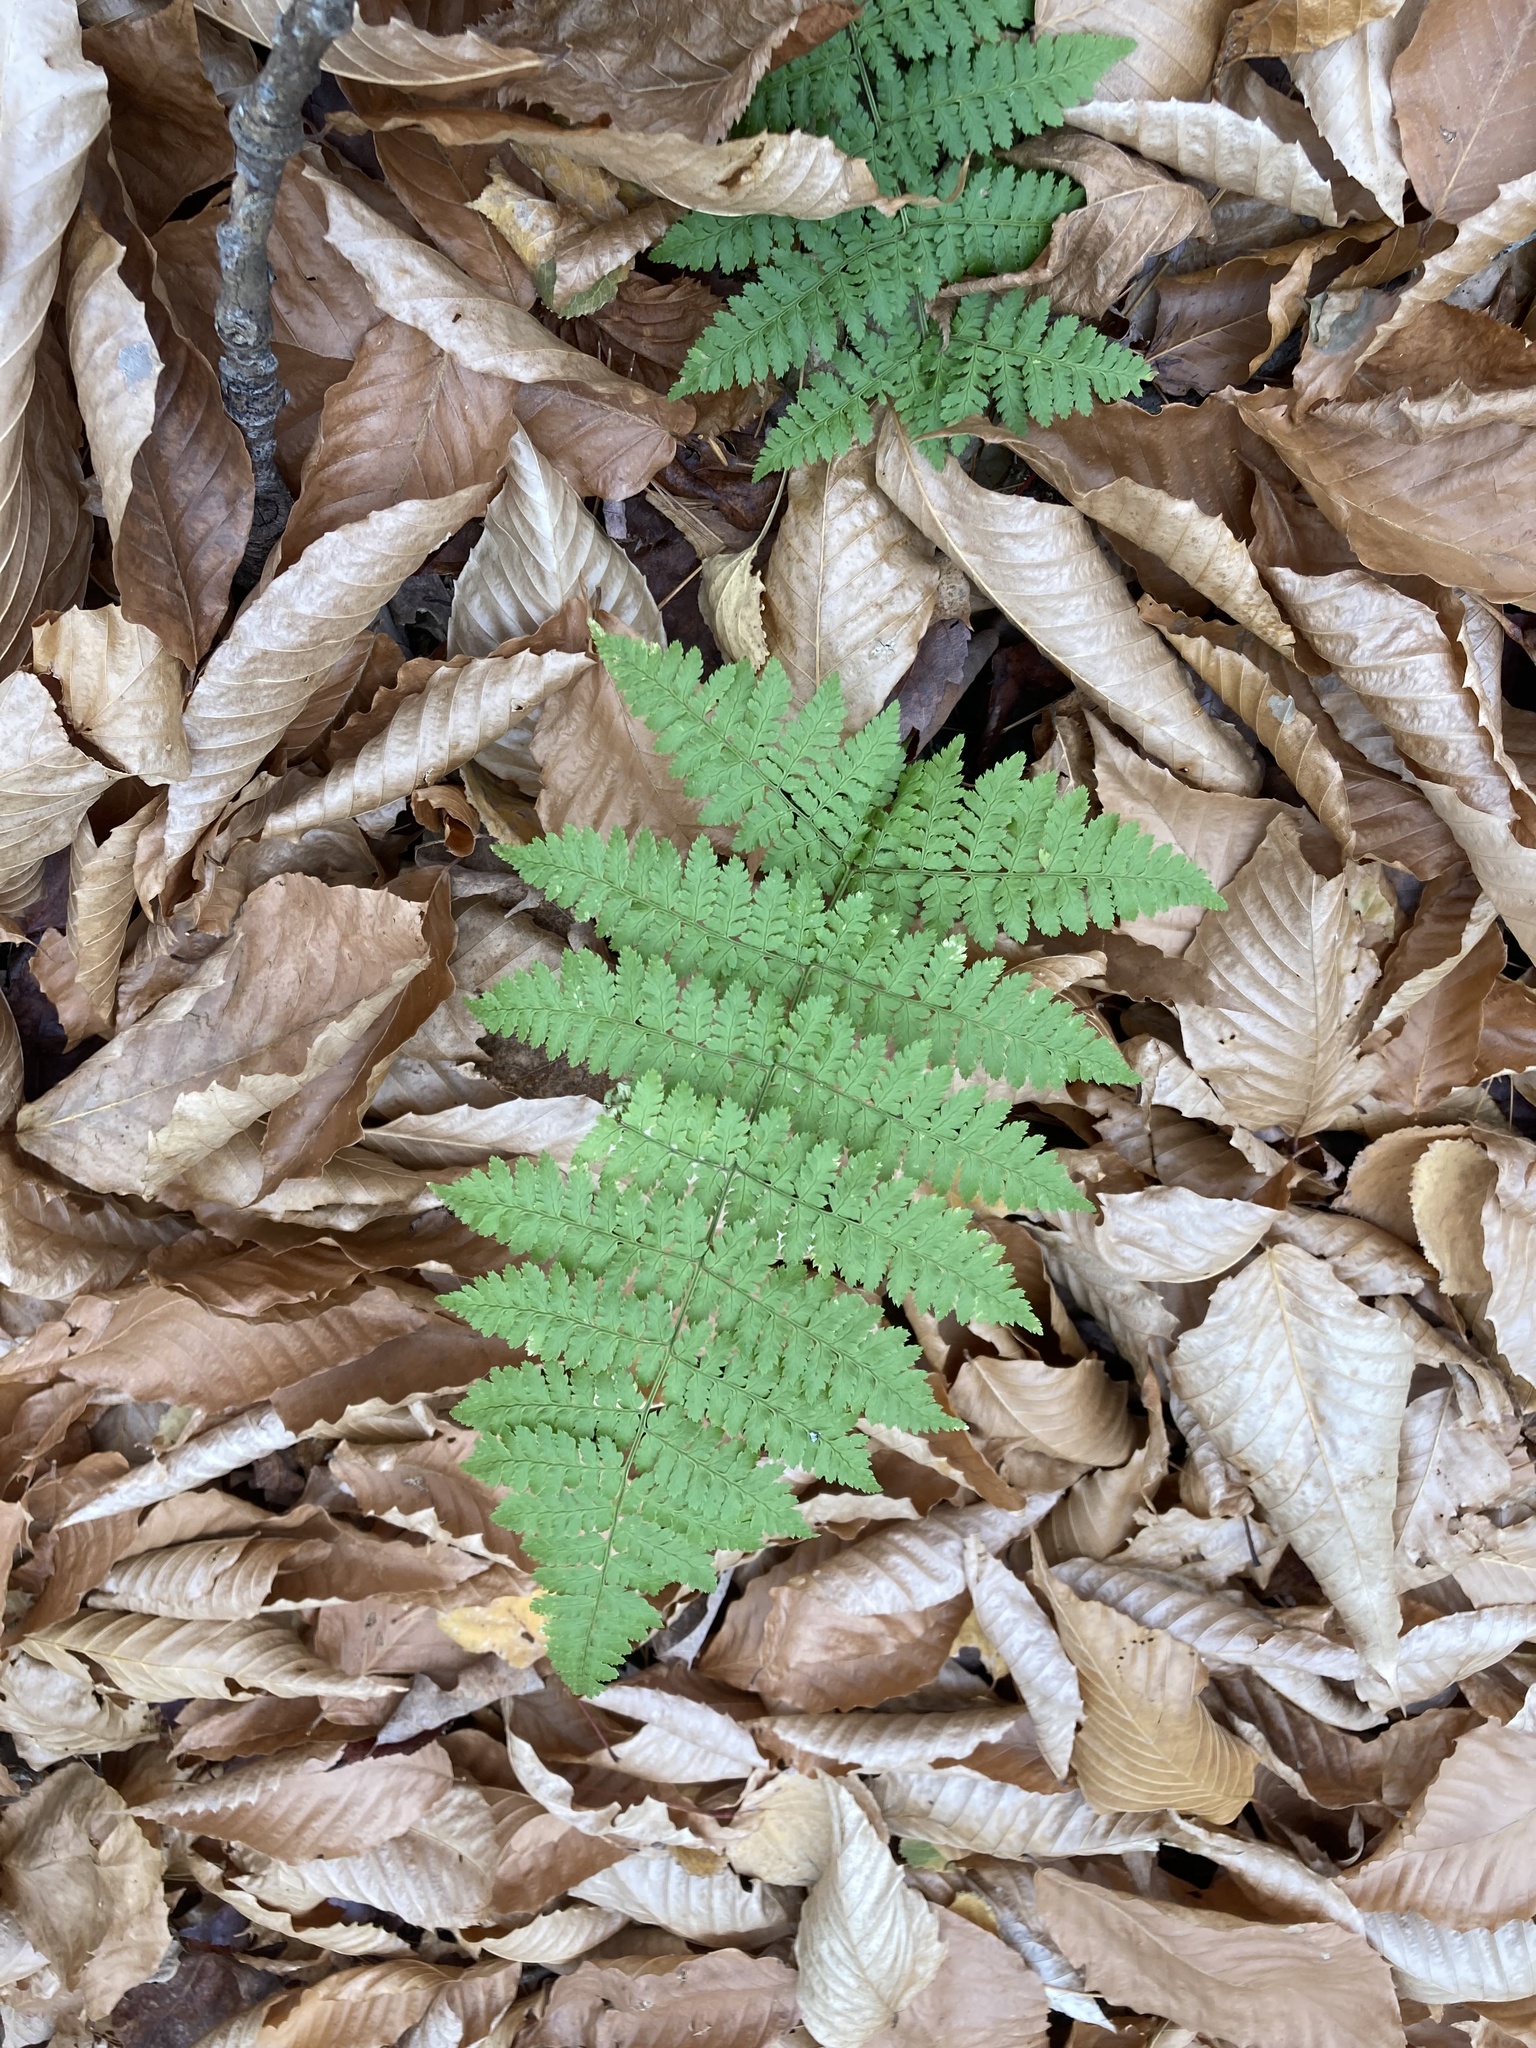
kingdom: Plantae
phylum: Tracheophyta
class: Polypodiopsida
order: Polypodiales
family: Dryopteridaceae
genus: Dryopteris
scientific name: Dryopteris intermedia
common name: Evergreen wood fern
